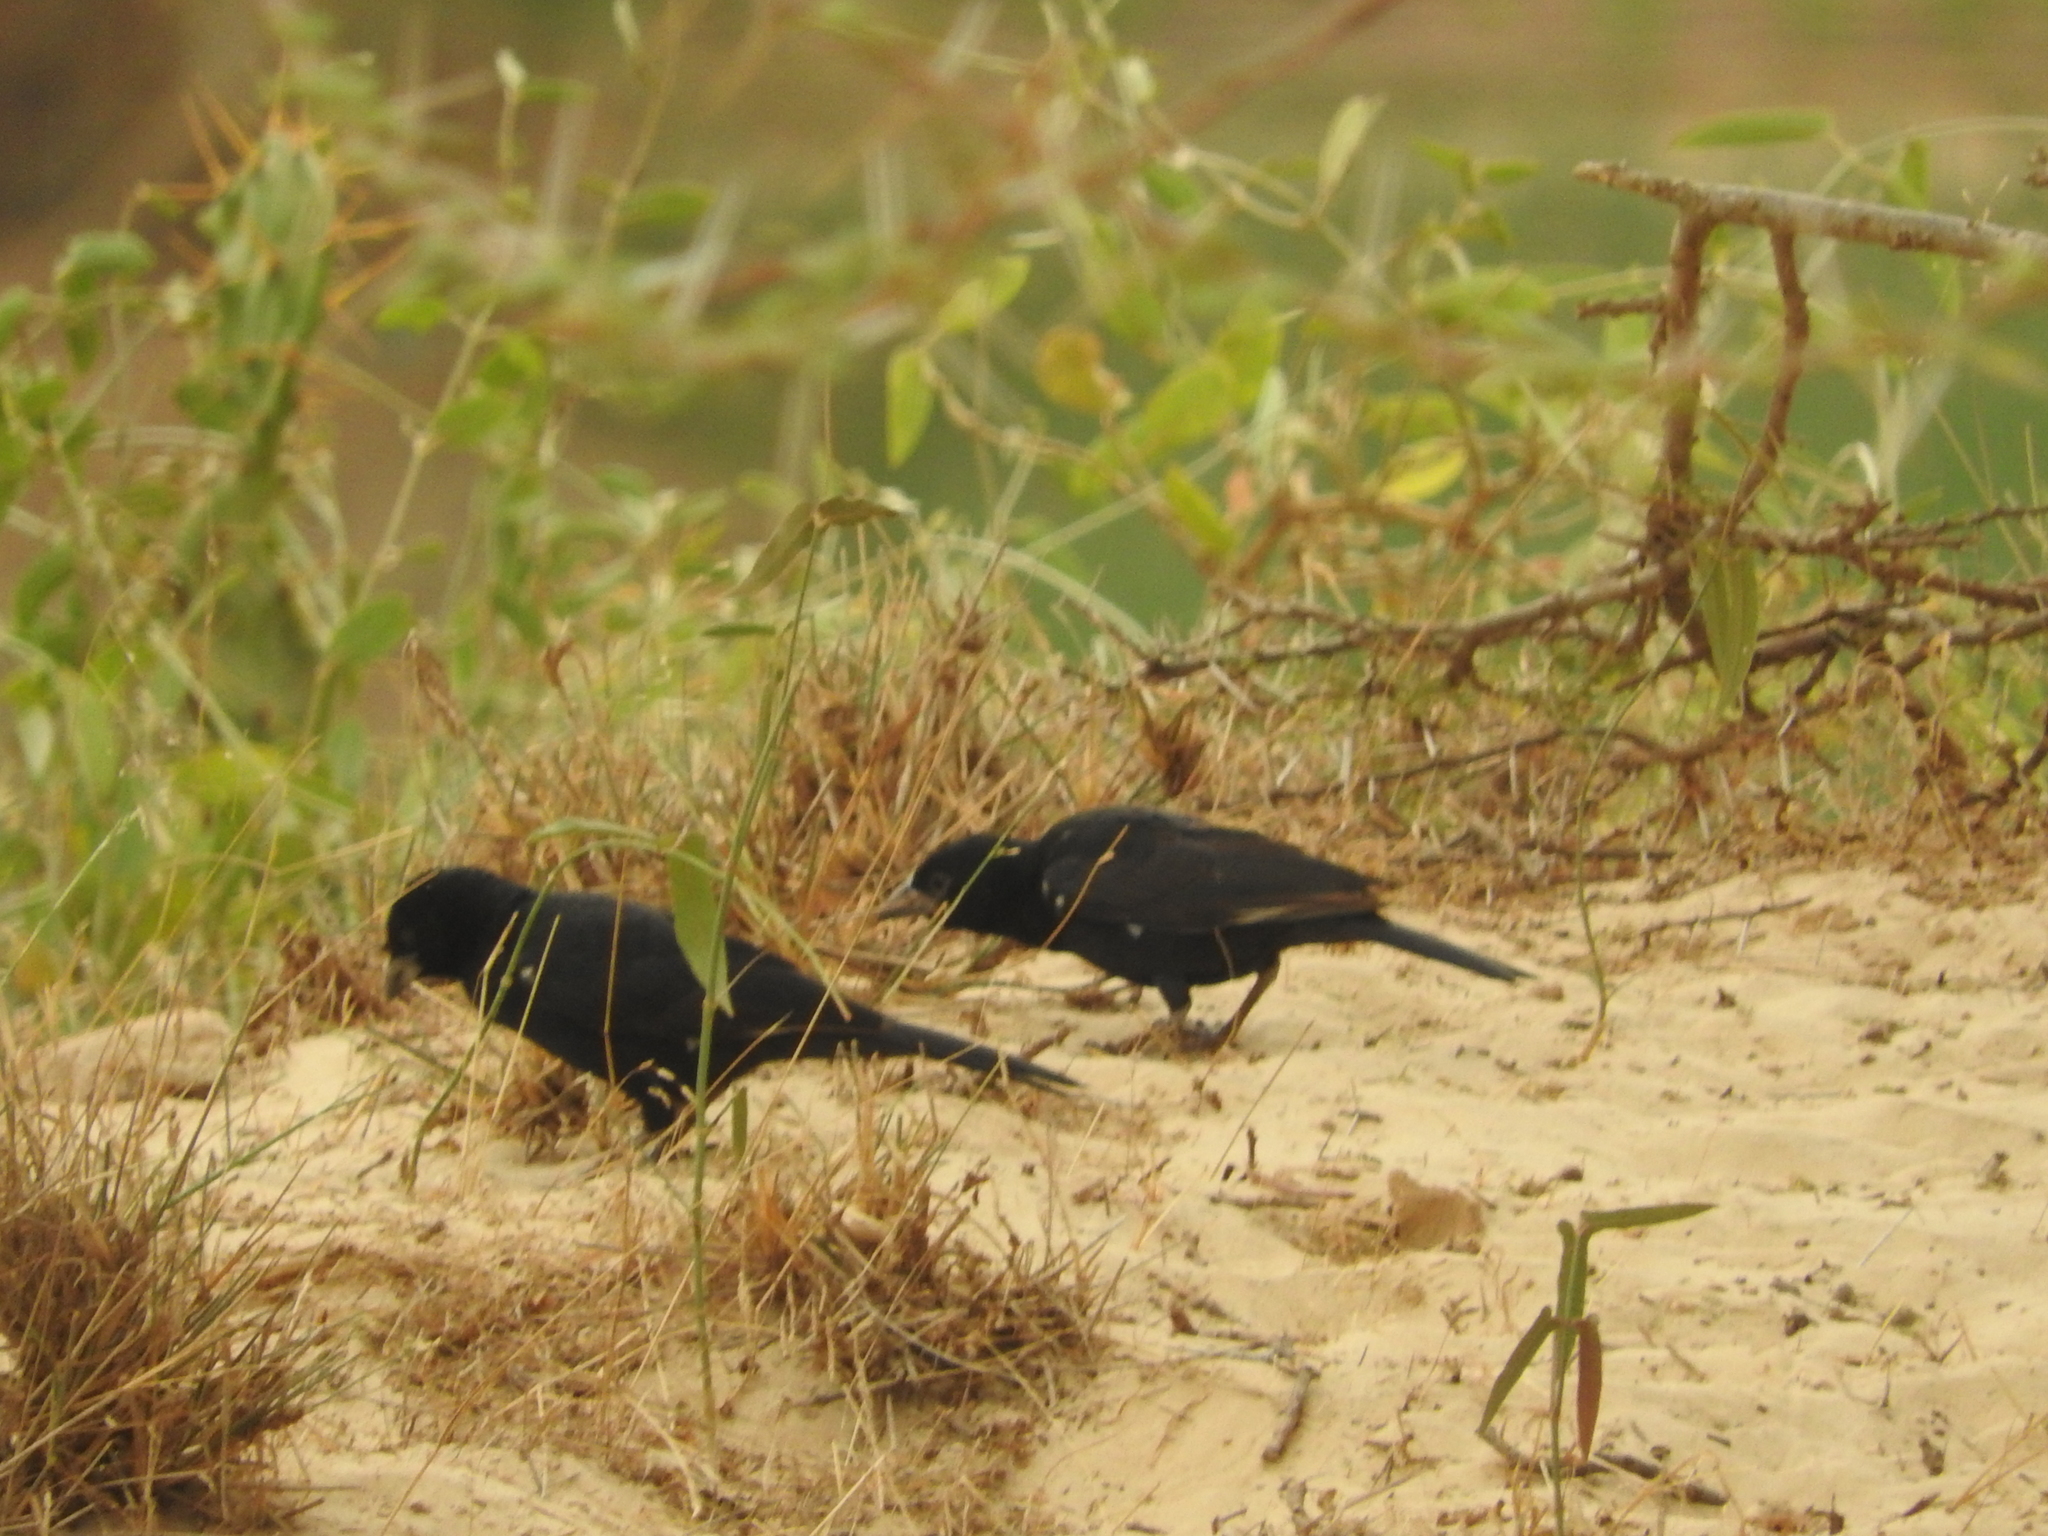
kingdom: Animalia
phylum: Chordata
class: Aves
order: Passeriformes
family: Ploceidae
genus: Bubalornis
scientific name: Bubalornis albirostris
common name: White-billed buffalo weaver
